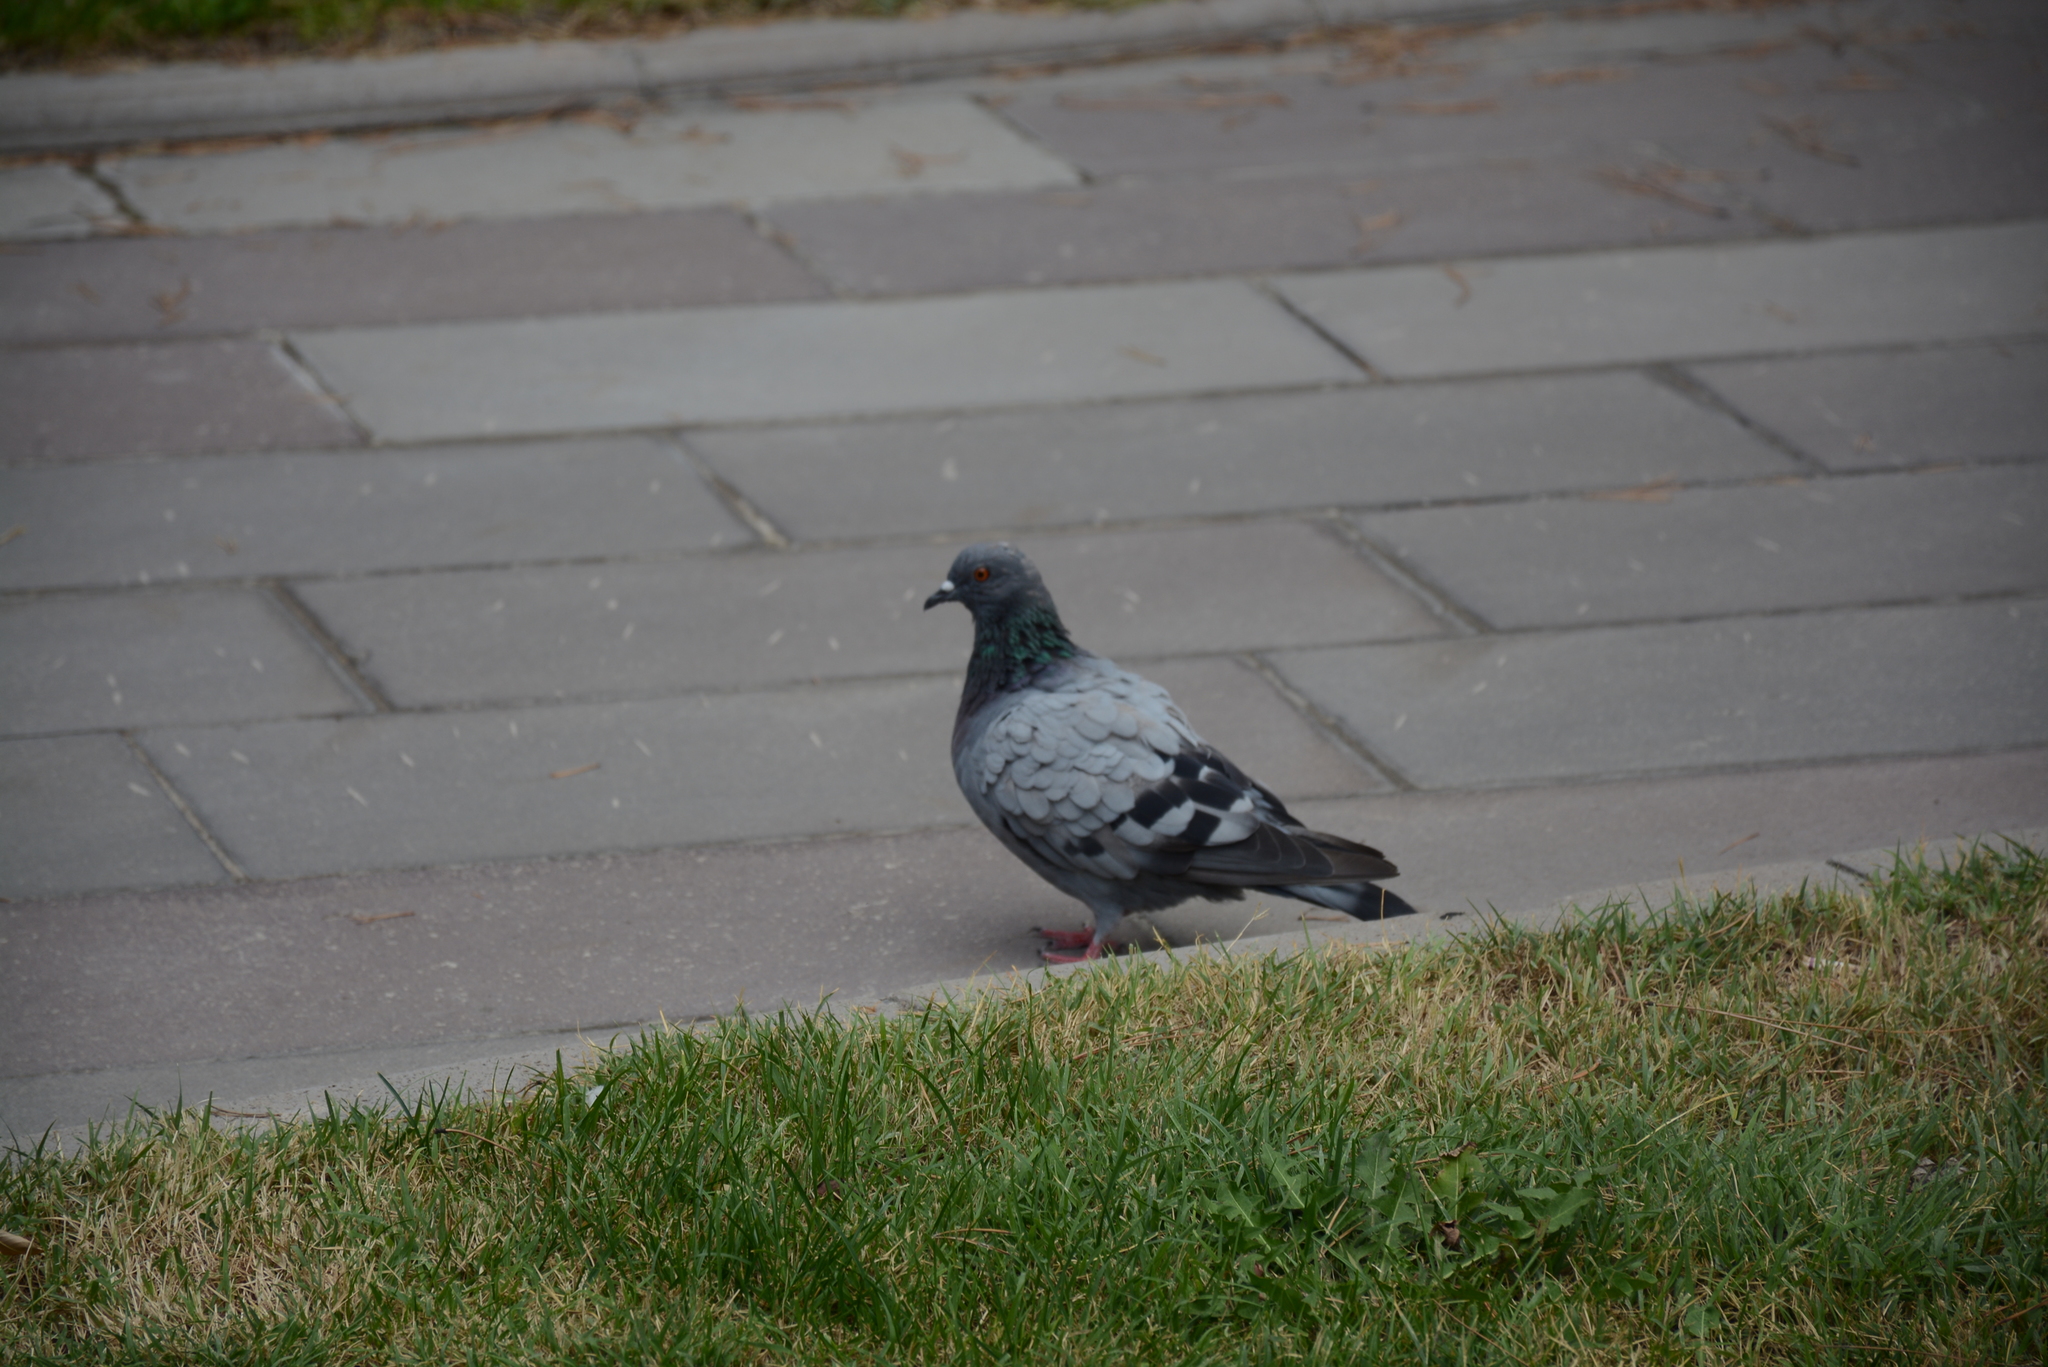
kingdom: Animalia
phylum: Chordata
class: Aves
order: Columbiformes
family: Columbidae
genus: Columba
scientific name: Columba livia
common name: Rock pigeon
